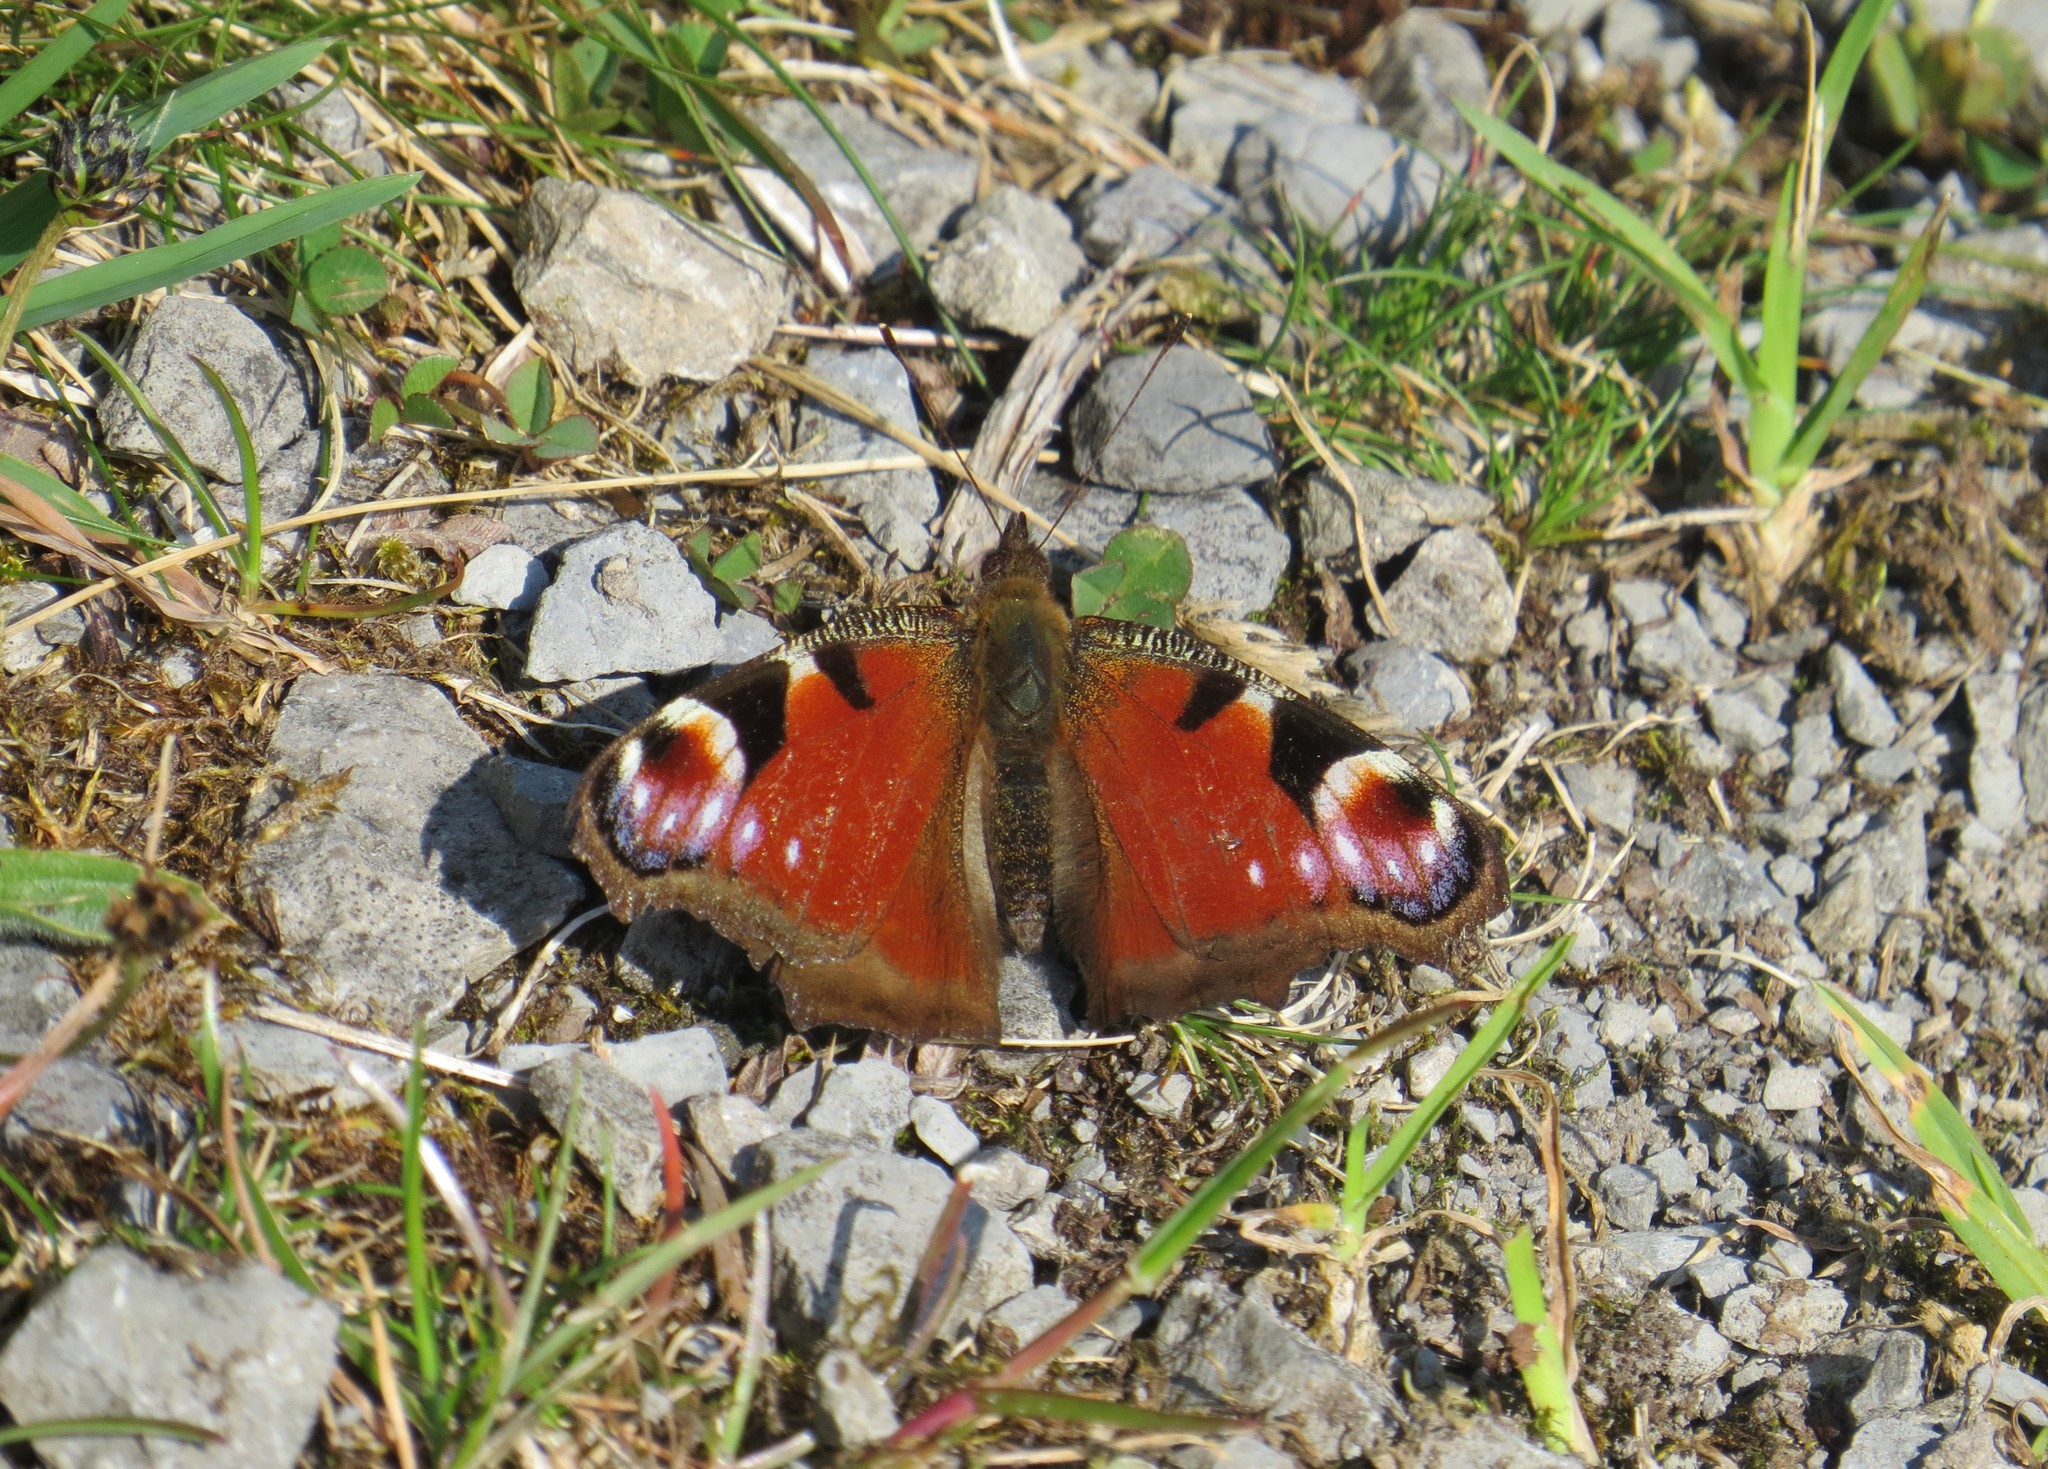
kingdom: Animalia
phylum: Arthropoda
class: Insecta
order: Lepidoptera
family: Nymphalidae
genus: Aglais
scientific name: Aglais io
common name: Peacock
